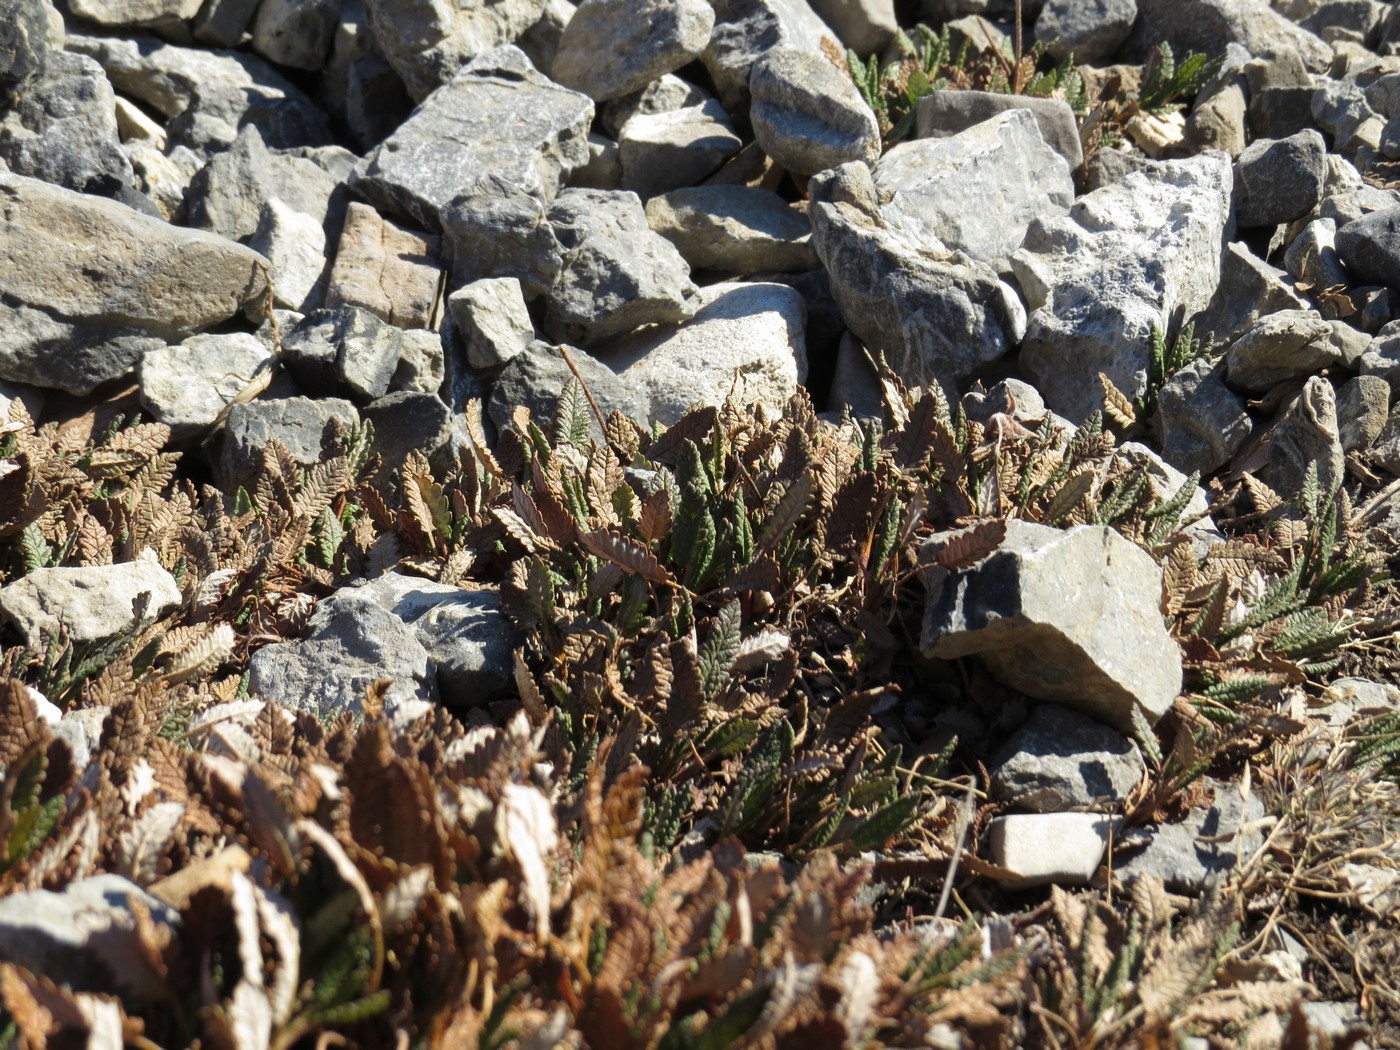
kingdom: Plantae
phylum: Tracheophyta
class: Magnoliopsida
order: Rosales
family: Rosaceae
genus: Dryas
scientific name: Dryas octopetala
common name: Eight-petal mountain-avens
